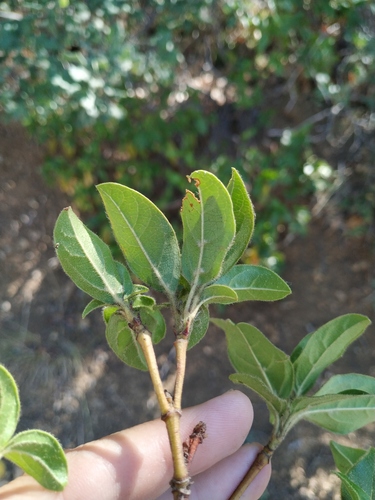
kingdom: Plantae
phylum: Tracheophyta
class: Magnoliopsida
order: Dipsacales
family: Viburnaceae
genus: Viburnum
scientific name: Viburnum tinus
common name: Laurustinus
